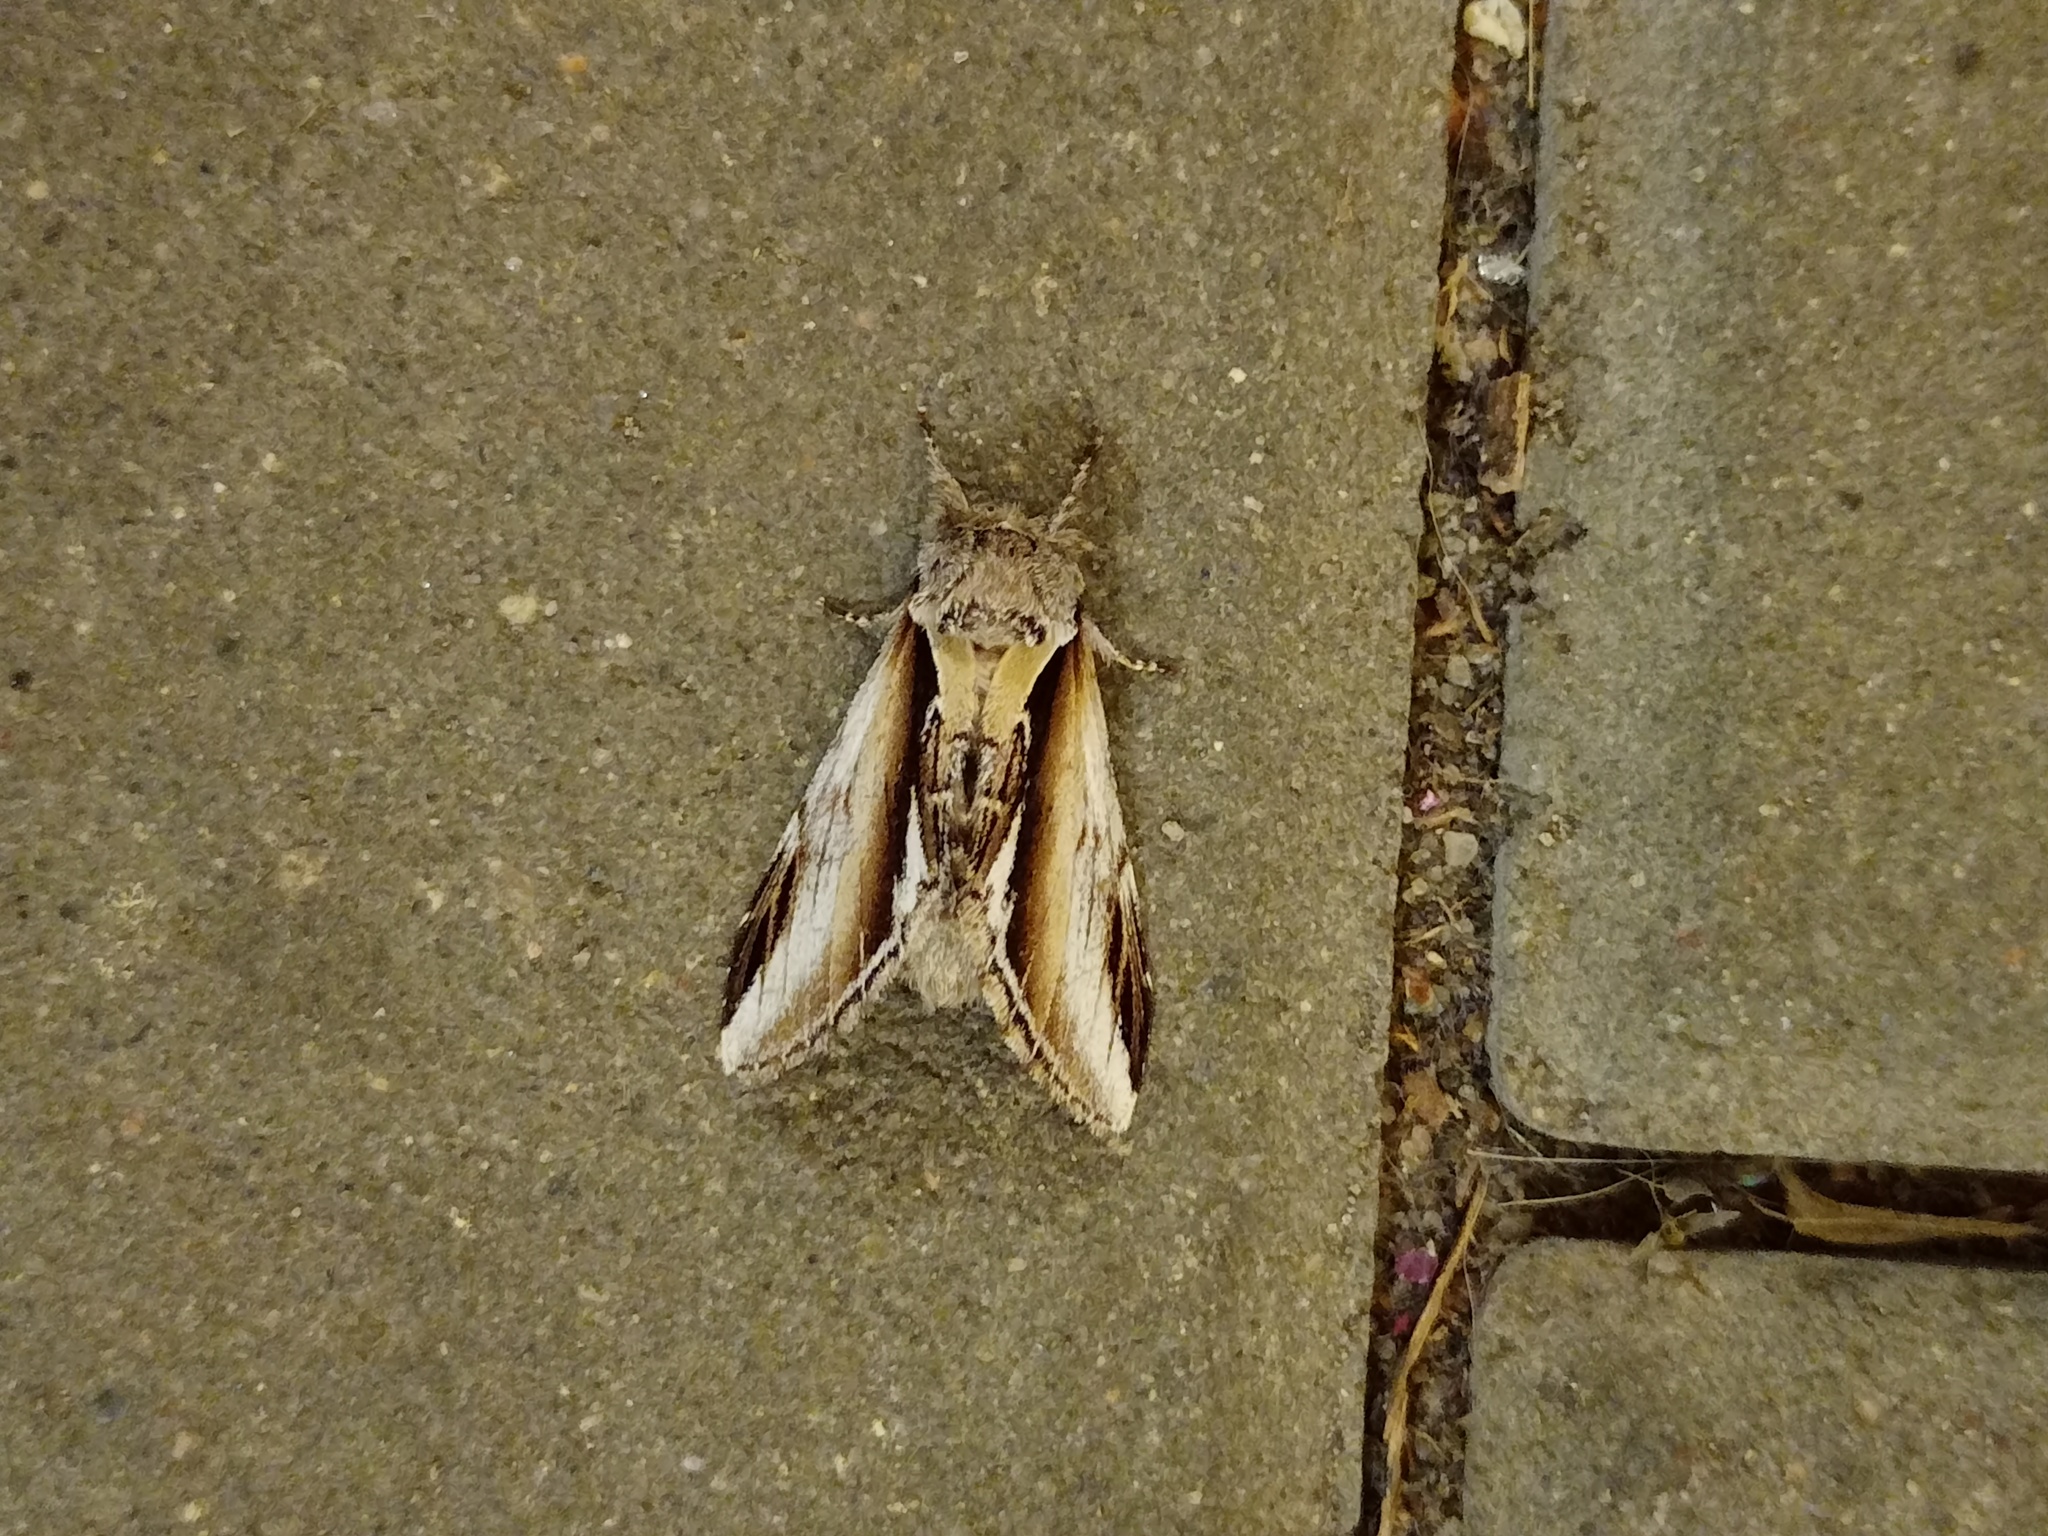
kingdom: Animalia
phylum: Arthropoda
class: Insecta
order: Lepidoptera
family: Notodontidae
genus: Pheosia
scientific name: Pheosia gnoma
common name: Lesser swallow prominent
